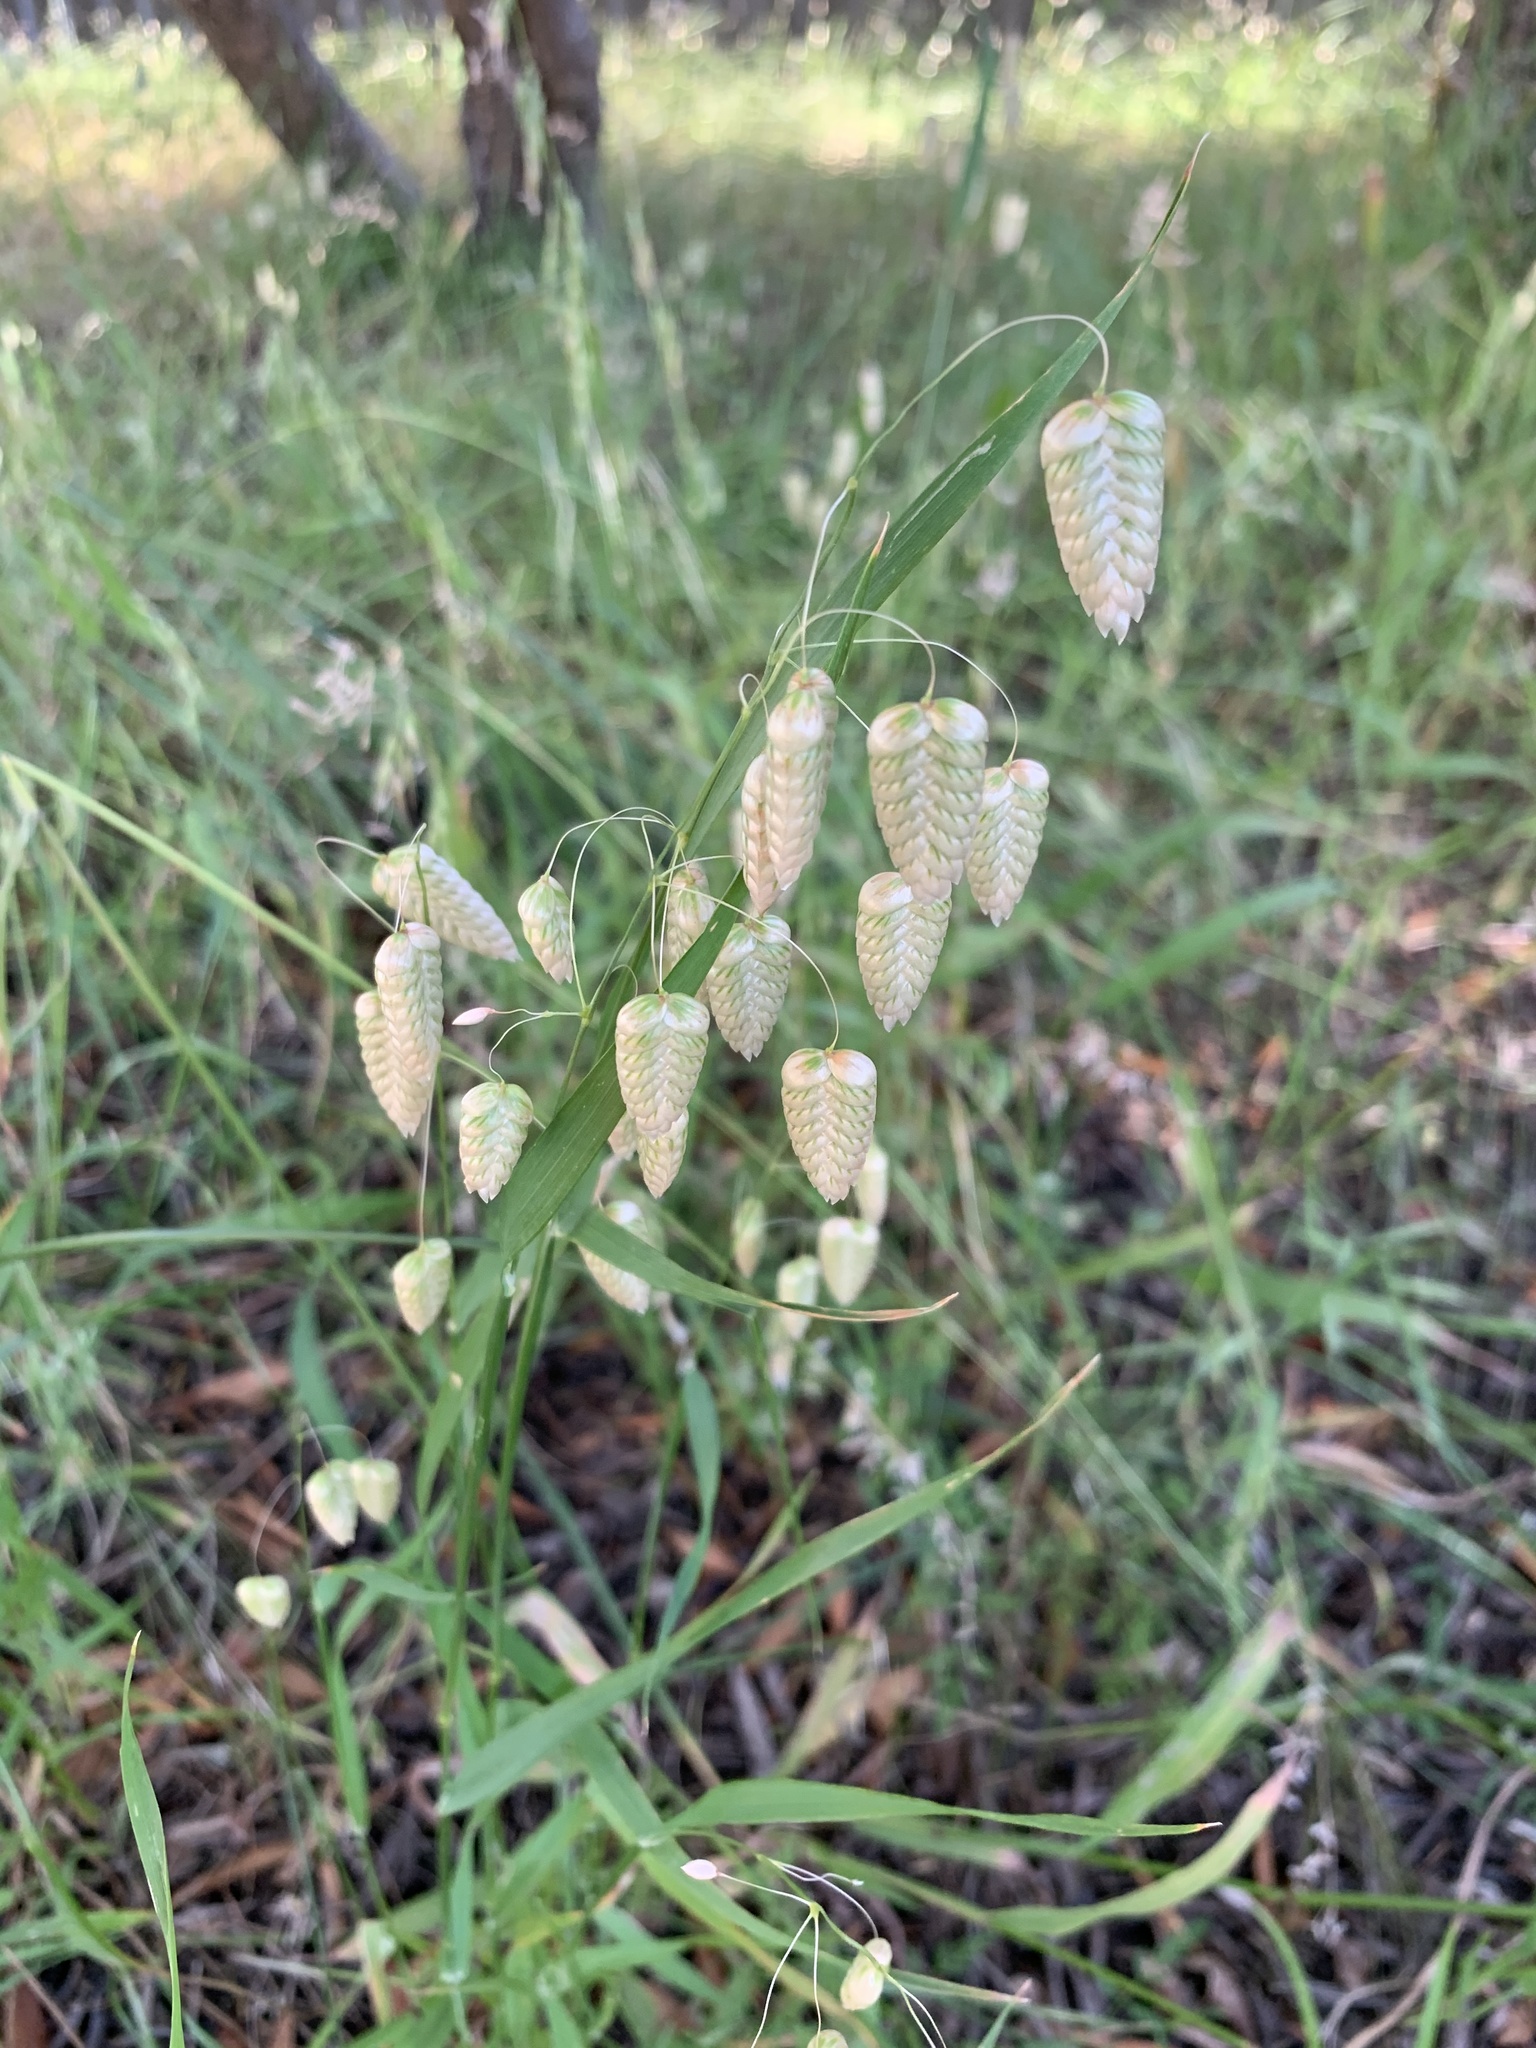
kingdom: Plantae
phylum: Tracheophyta
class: Liliopsida
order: Poales
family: Poaceae
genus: Briza
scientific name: Briza maxima
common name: Big quakinggrass
